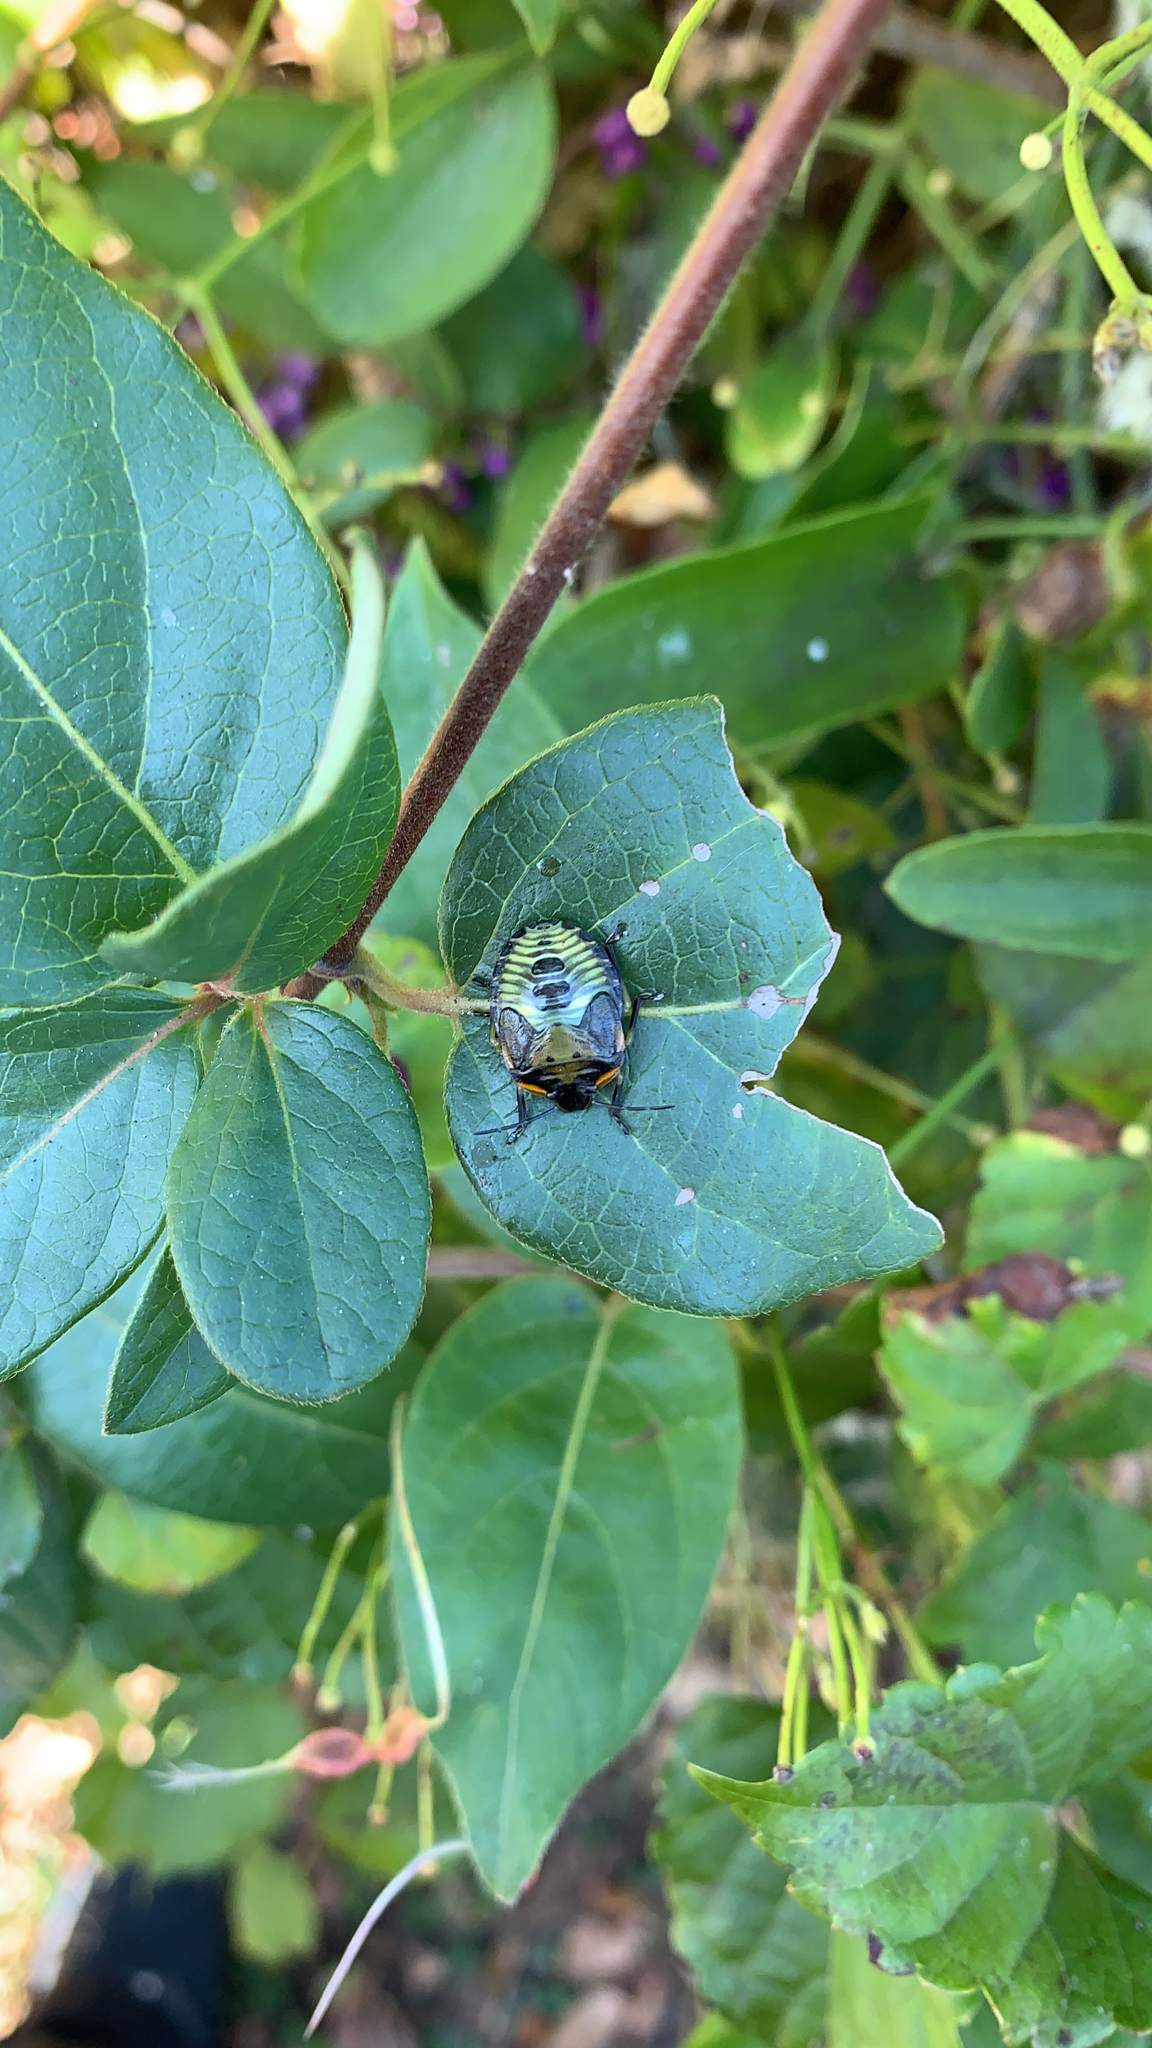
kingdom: Animalia
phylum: Arthropoda
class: Insecta
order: Hemiptera
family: Pentatomidae
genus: Chinavia
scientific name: Chinavia hilaris
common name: Green stink bug
